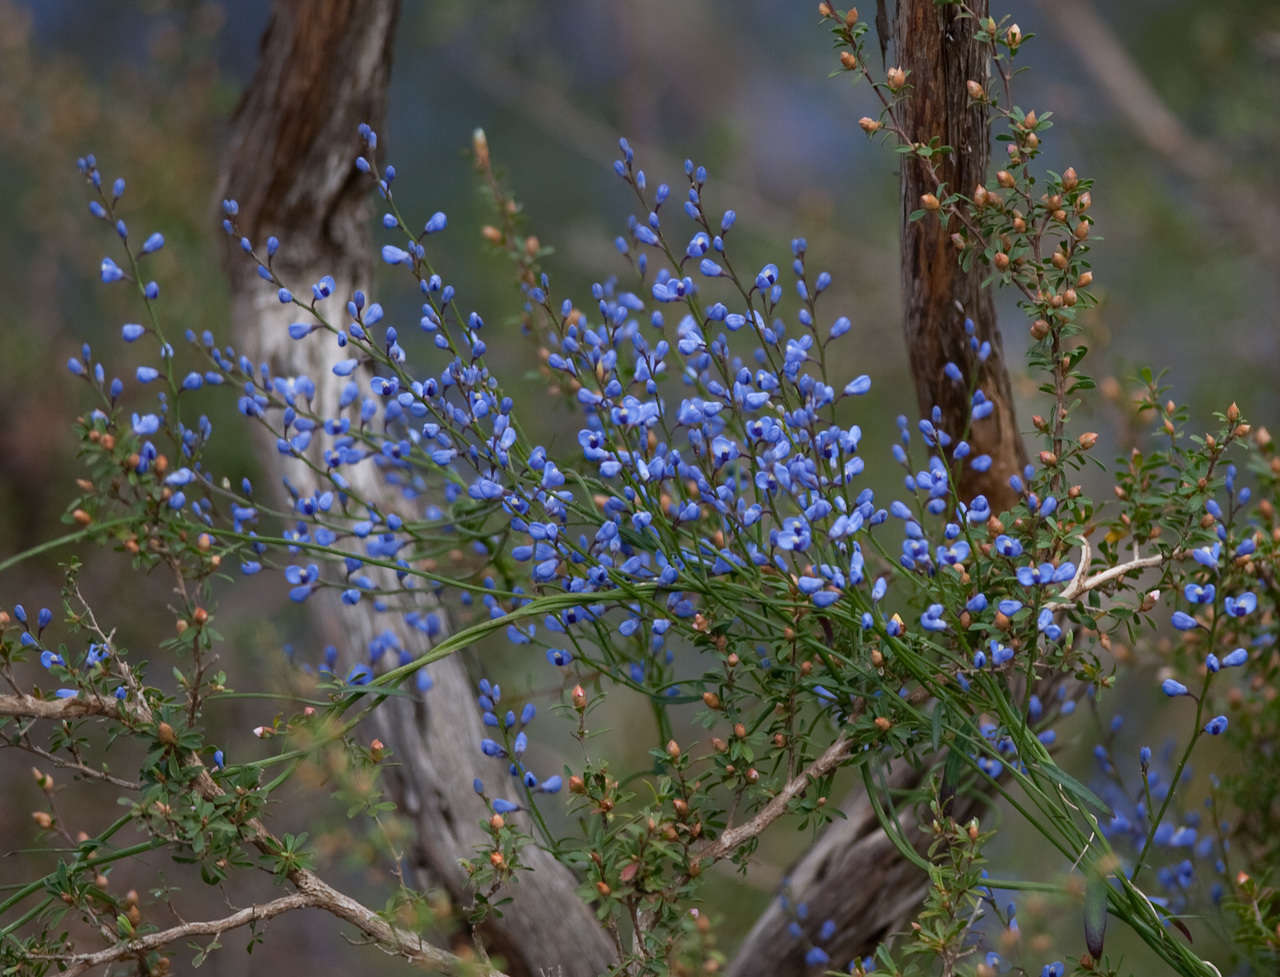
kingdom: Plantae
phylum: Tracheophyta
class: Magnoliopsida
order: Fabales
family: Polygalaceae
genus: Comesperma
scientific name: Comesperma volubile
